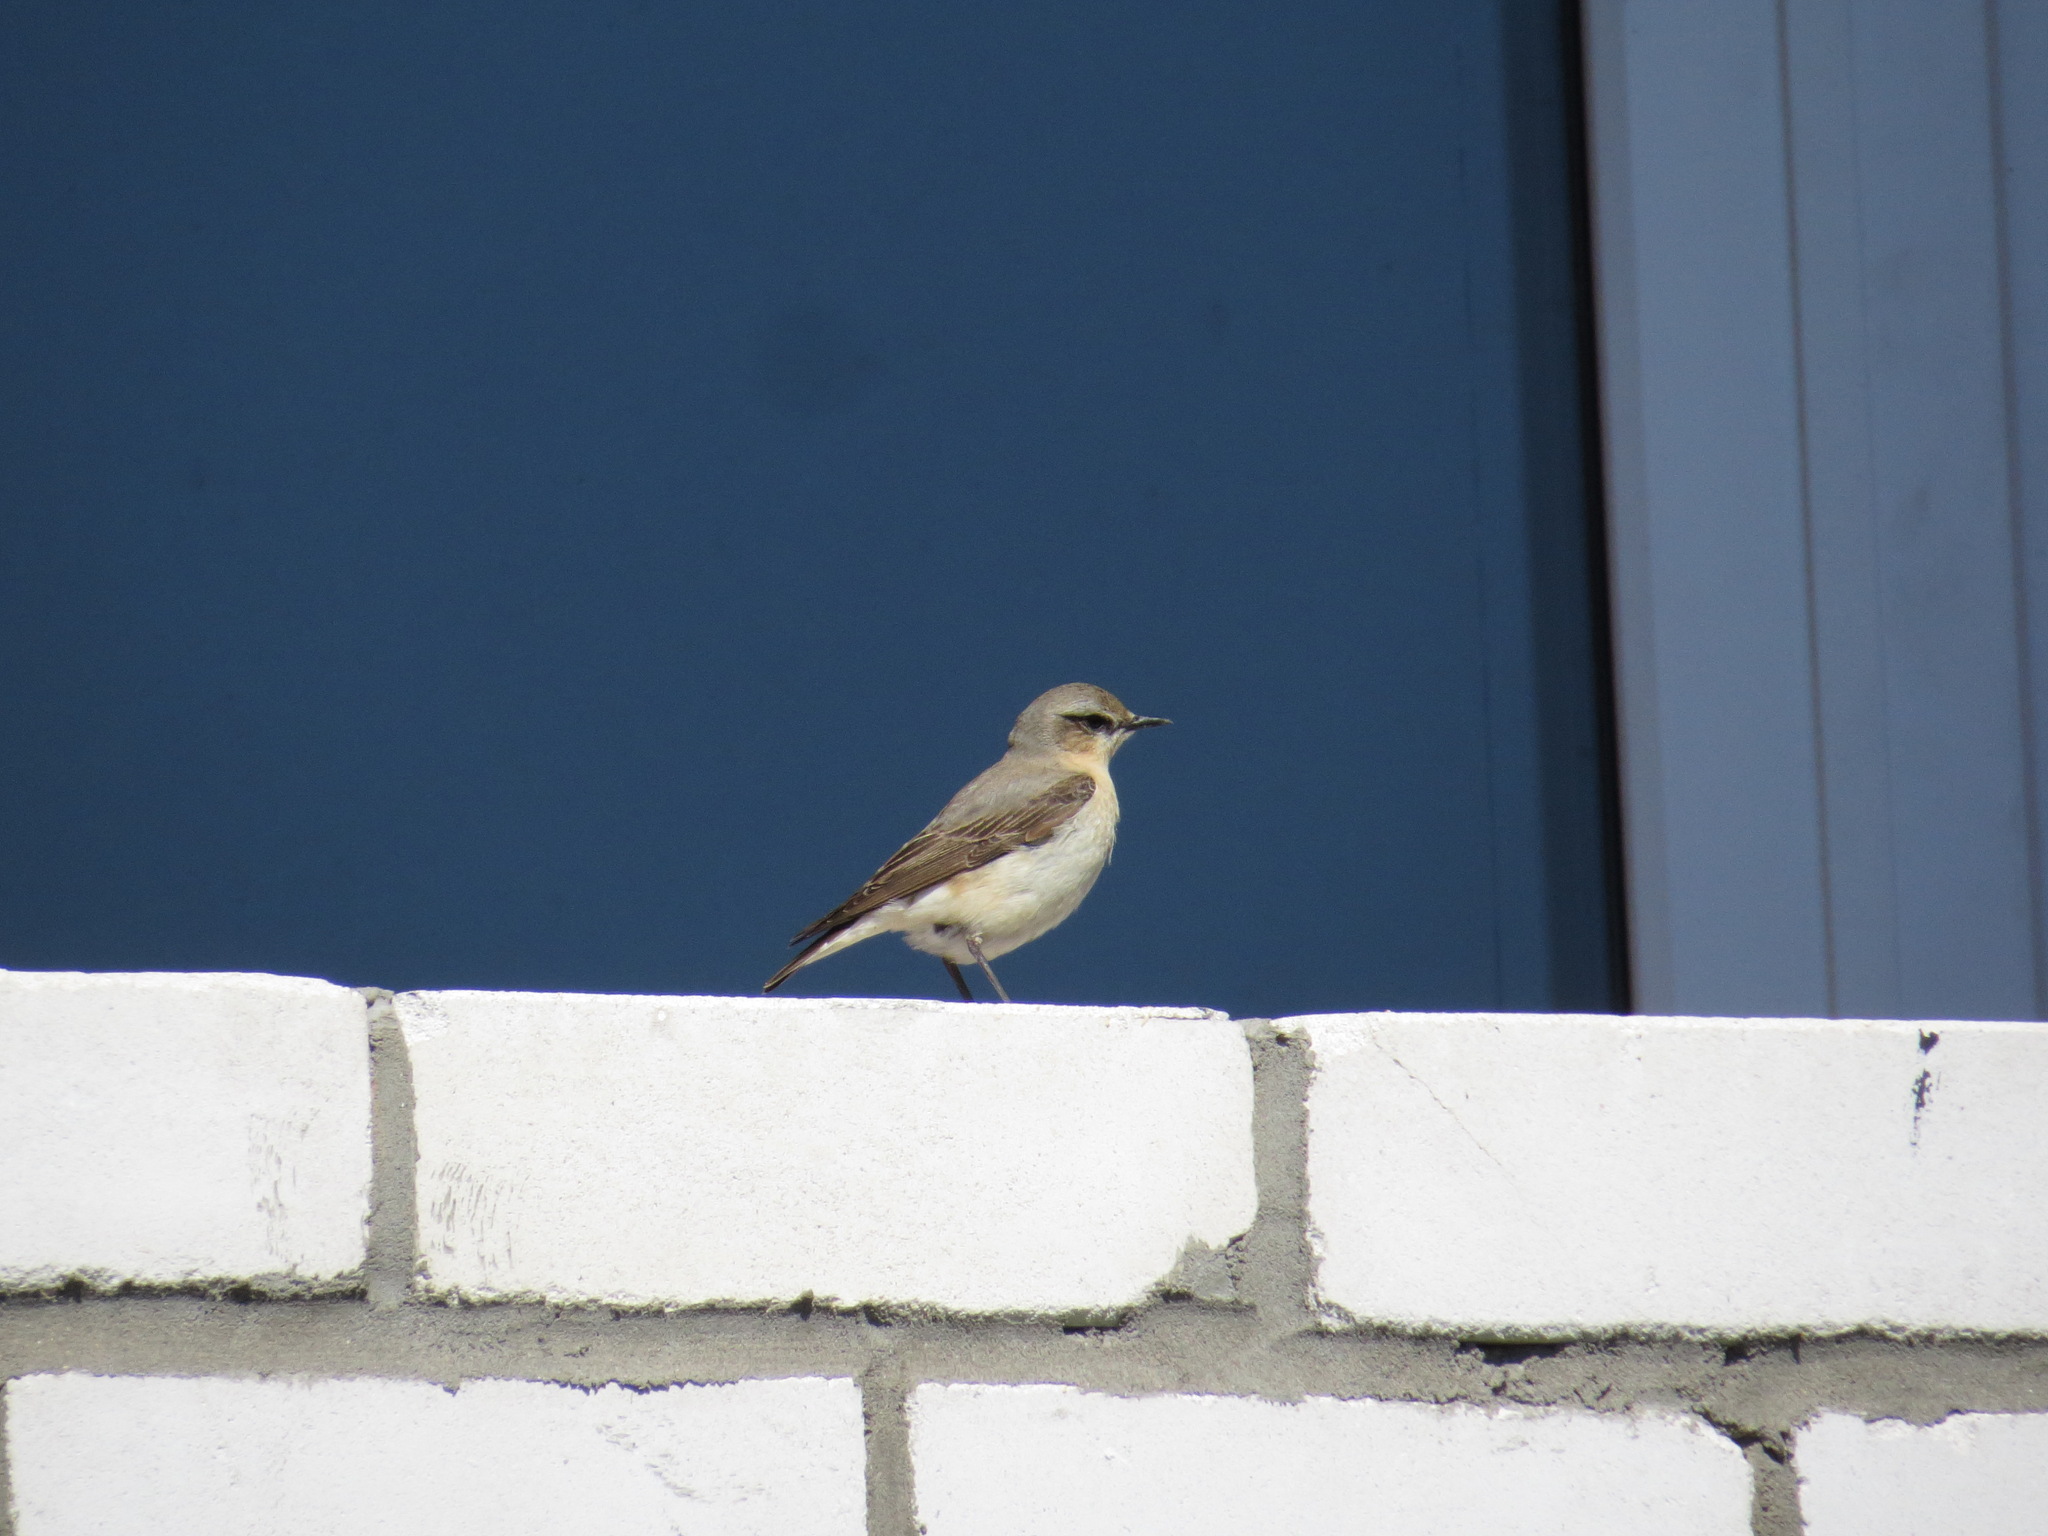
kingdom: Animalia
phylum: Chordata
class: Aves
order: Passeriformes
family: Muscicapidae
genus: Oenanthe
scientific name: Oenanthe oenanthe
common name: Northern wheatear
